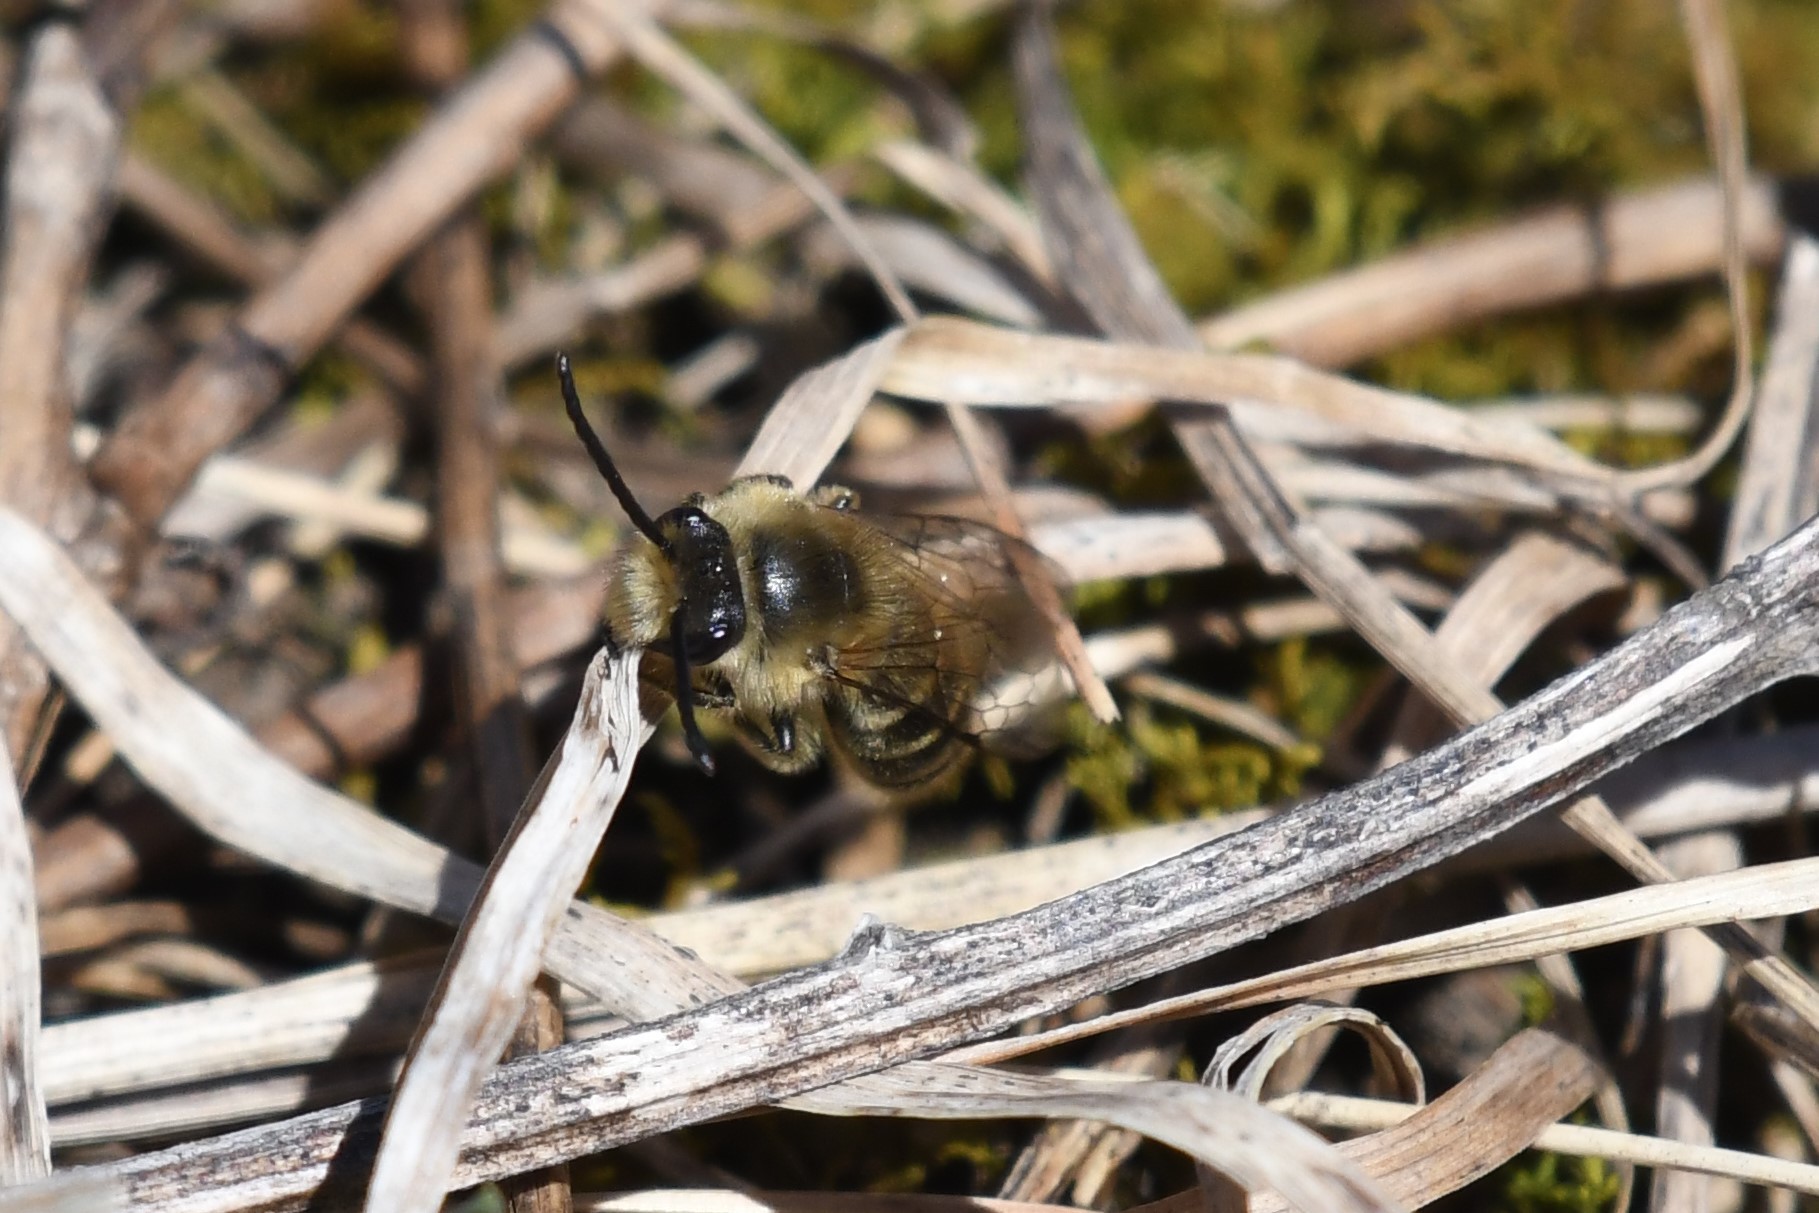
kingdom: Animalia
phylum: Arthropoda
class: Insecta
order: Hymenoptera
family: Colletidae
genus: Colletes
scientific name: Colletes inaequalis
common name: Unequal cellophane bee
